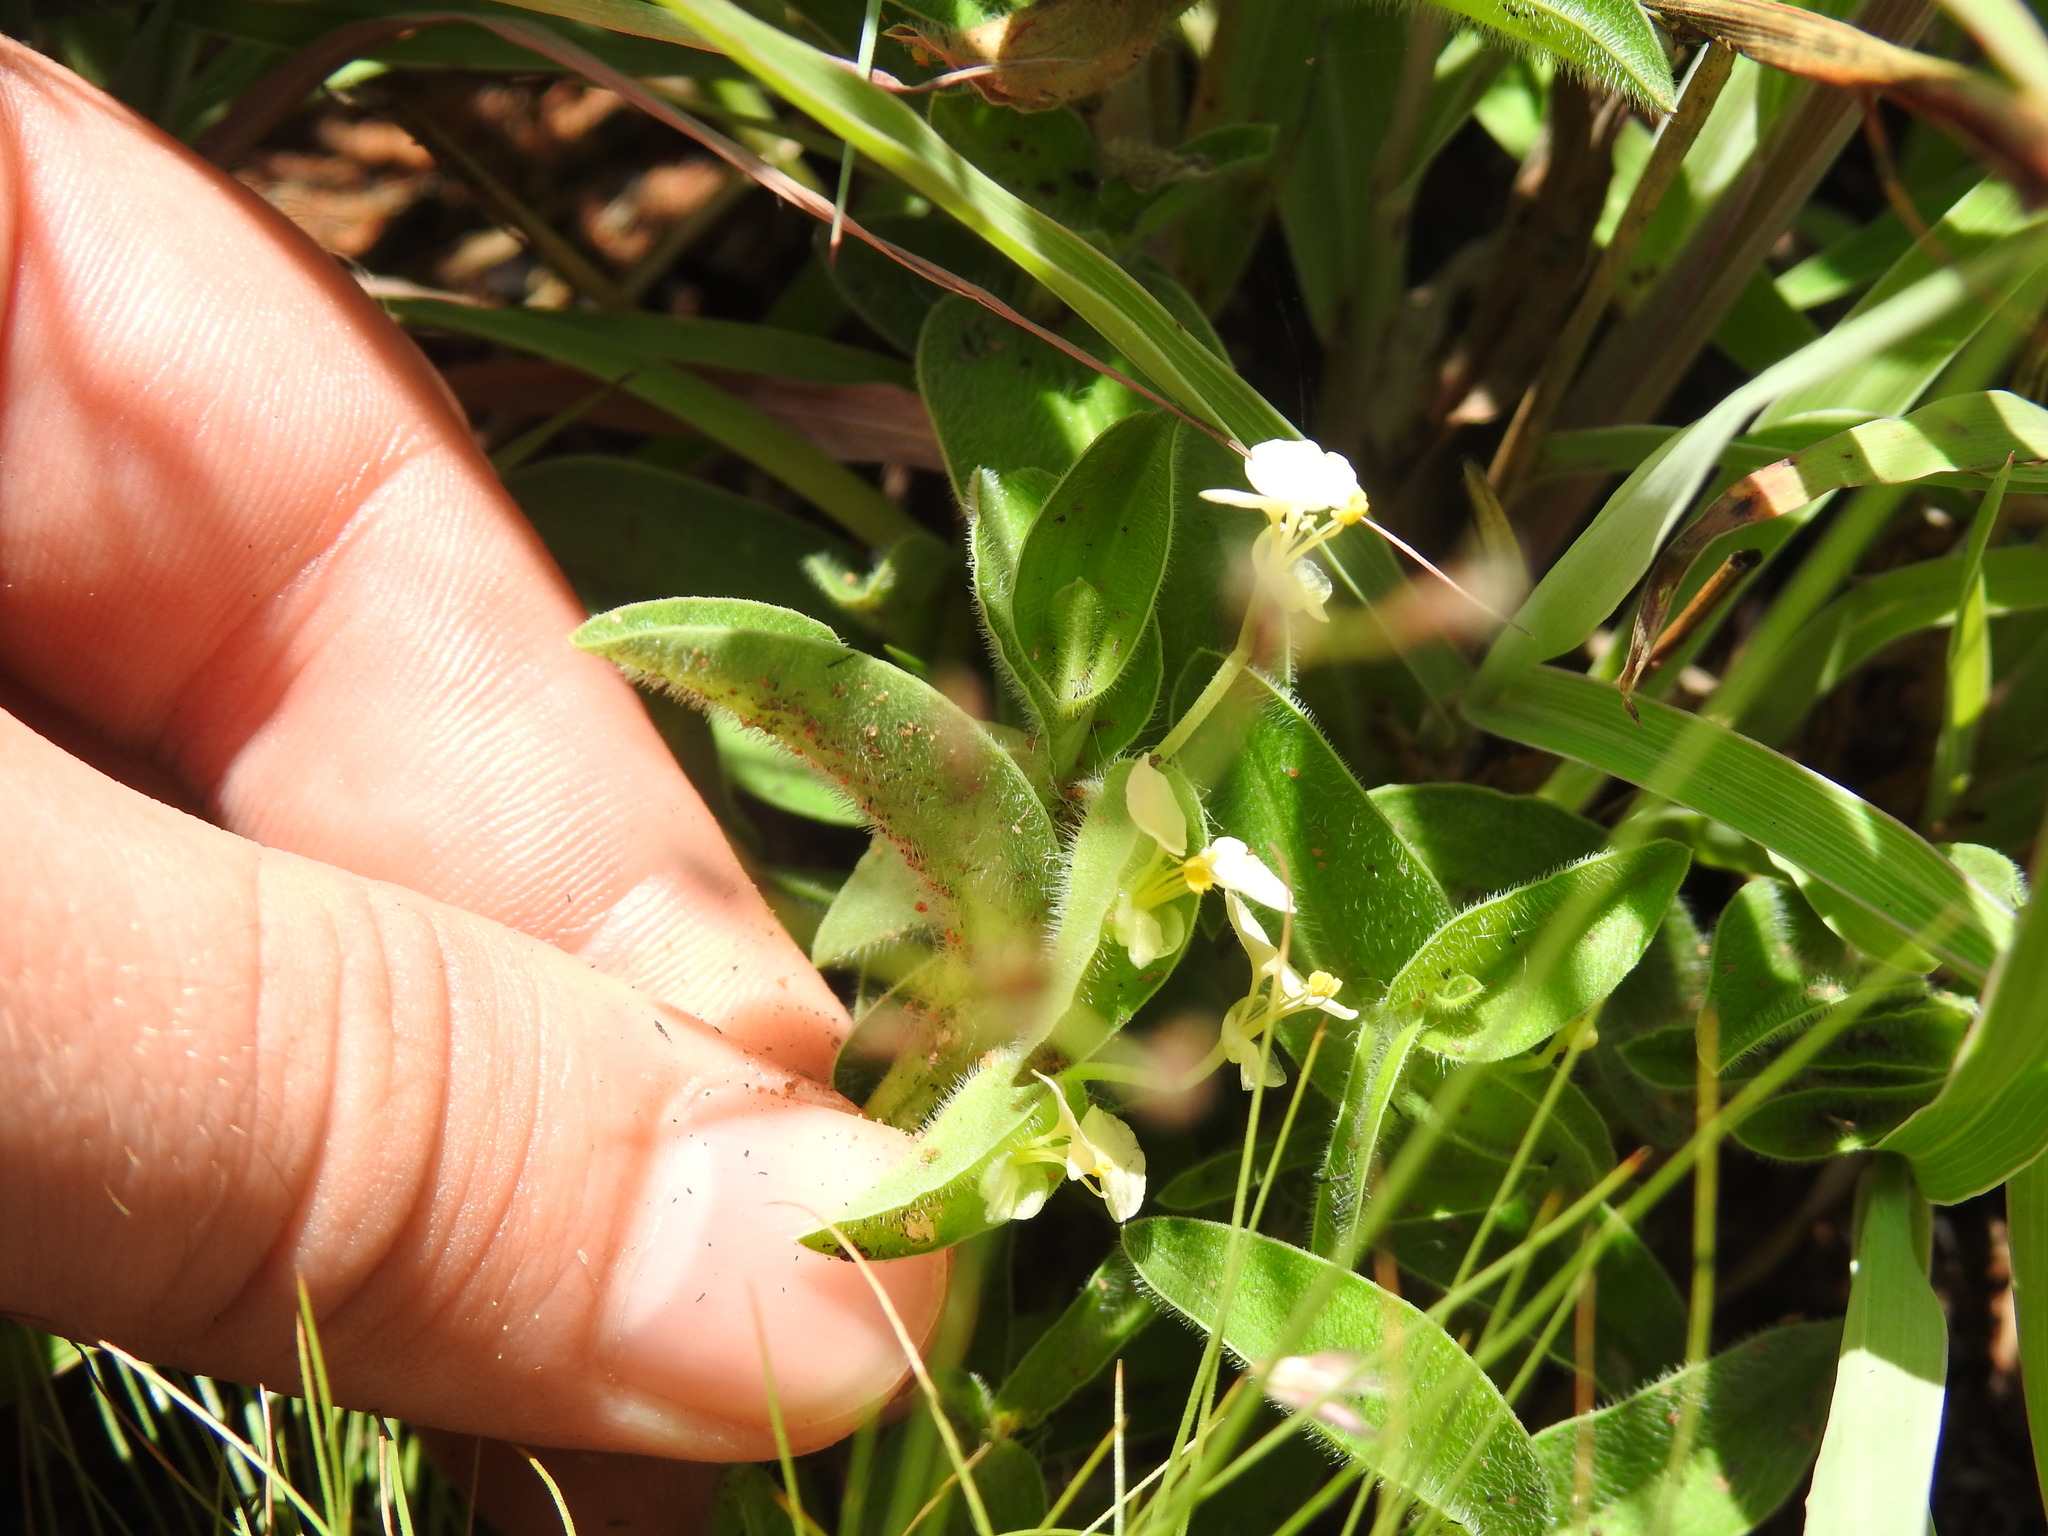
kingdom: Plantae
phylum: Tracheophyta
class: Liliopsida
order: Commelinales
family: Commelinaceae
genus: Commelina
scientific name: Commelina africana
